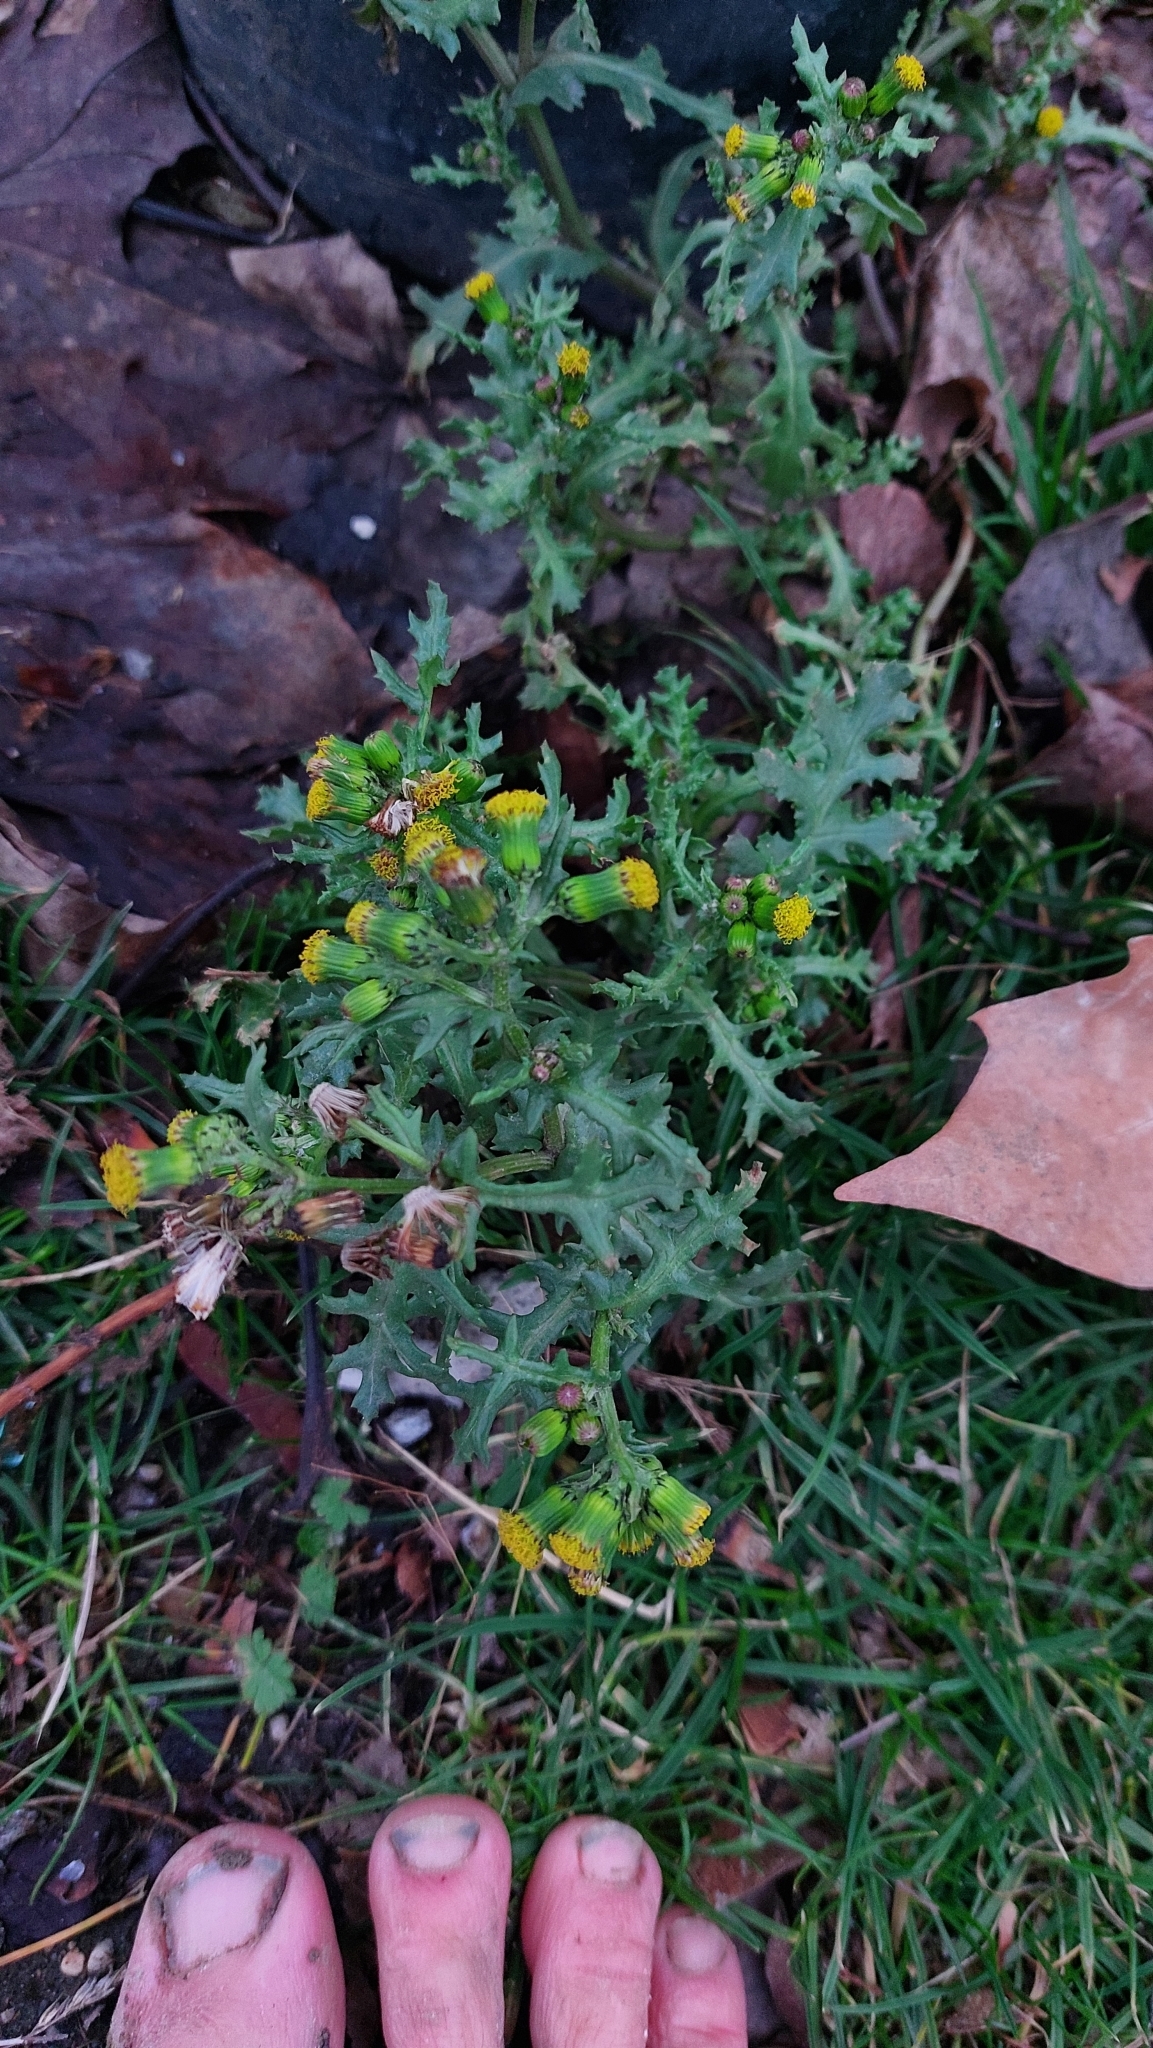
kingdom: Plantae
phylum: Tracheophyta
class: Magnoliopsida
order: Asterales
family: Asteraceae
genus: Senecio
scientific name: Senecio vulgaris
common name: Old-man-in-the-spring
